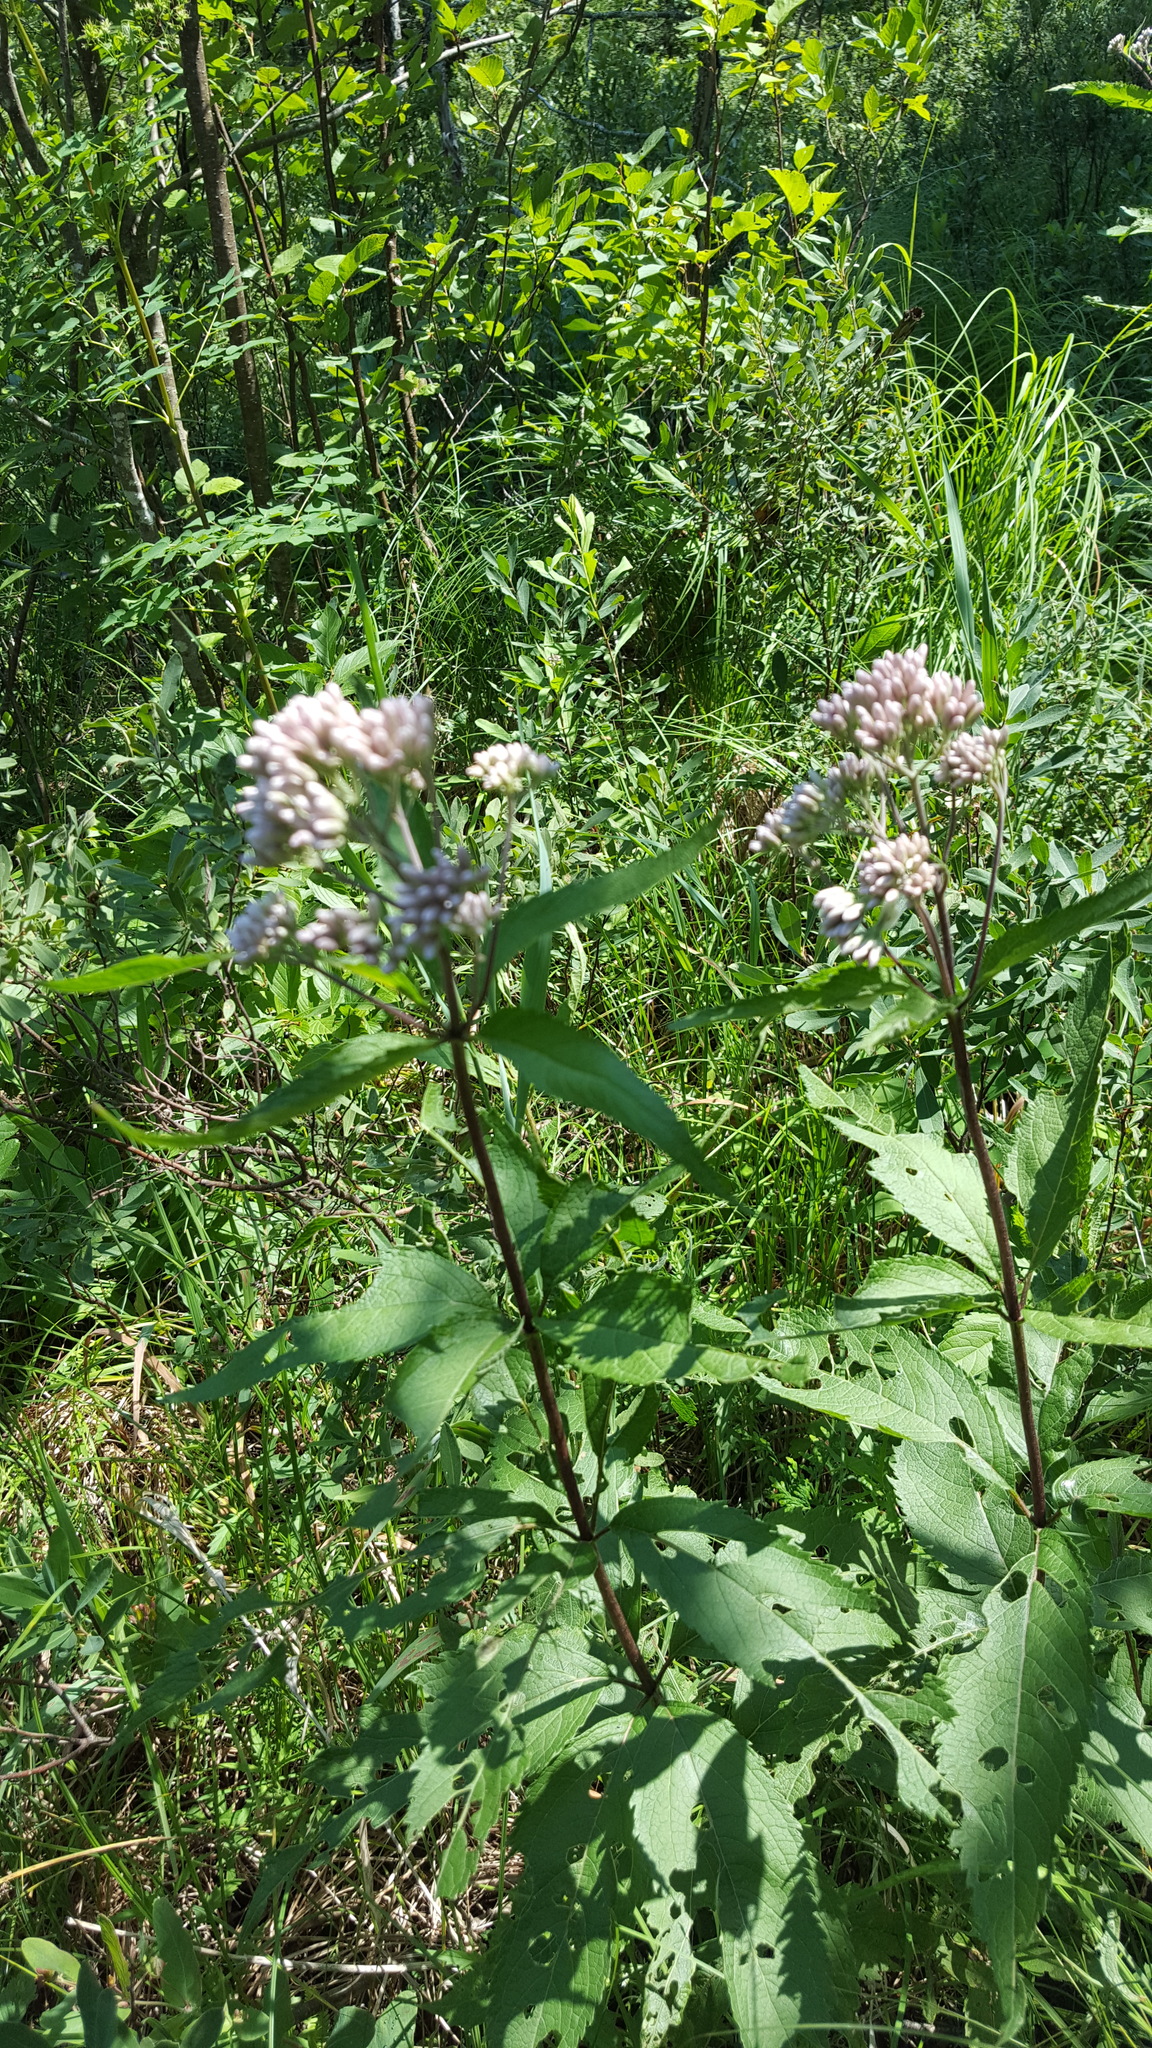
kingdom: Plantae
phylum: Tracheophyta
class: Magnoliopsida
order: Asterales
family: Asteraceae
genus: Eutrochium
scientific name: Eutrochium maculatum
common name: Spotted joe pye weed
